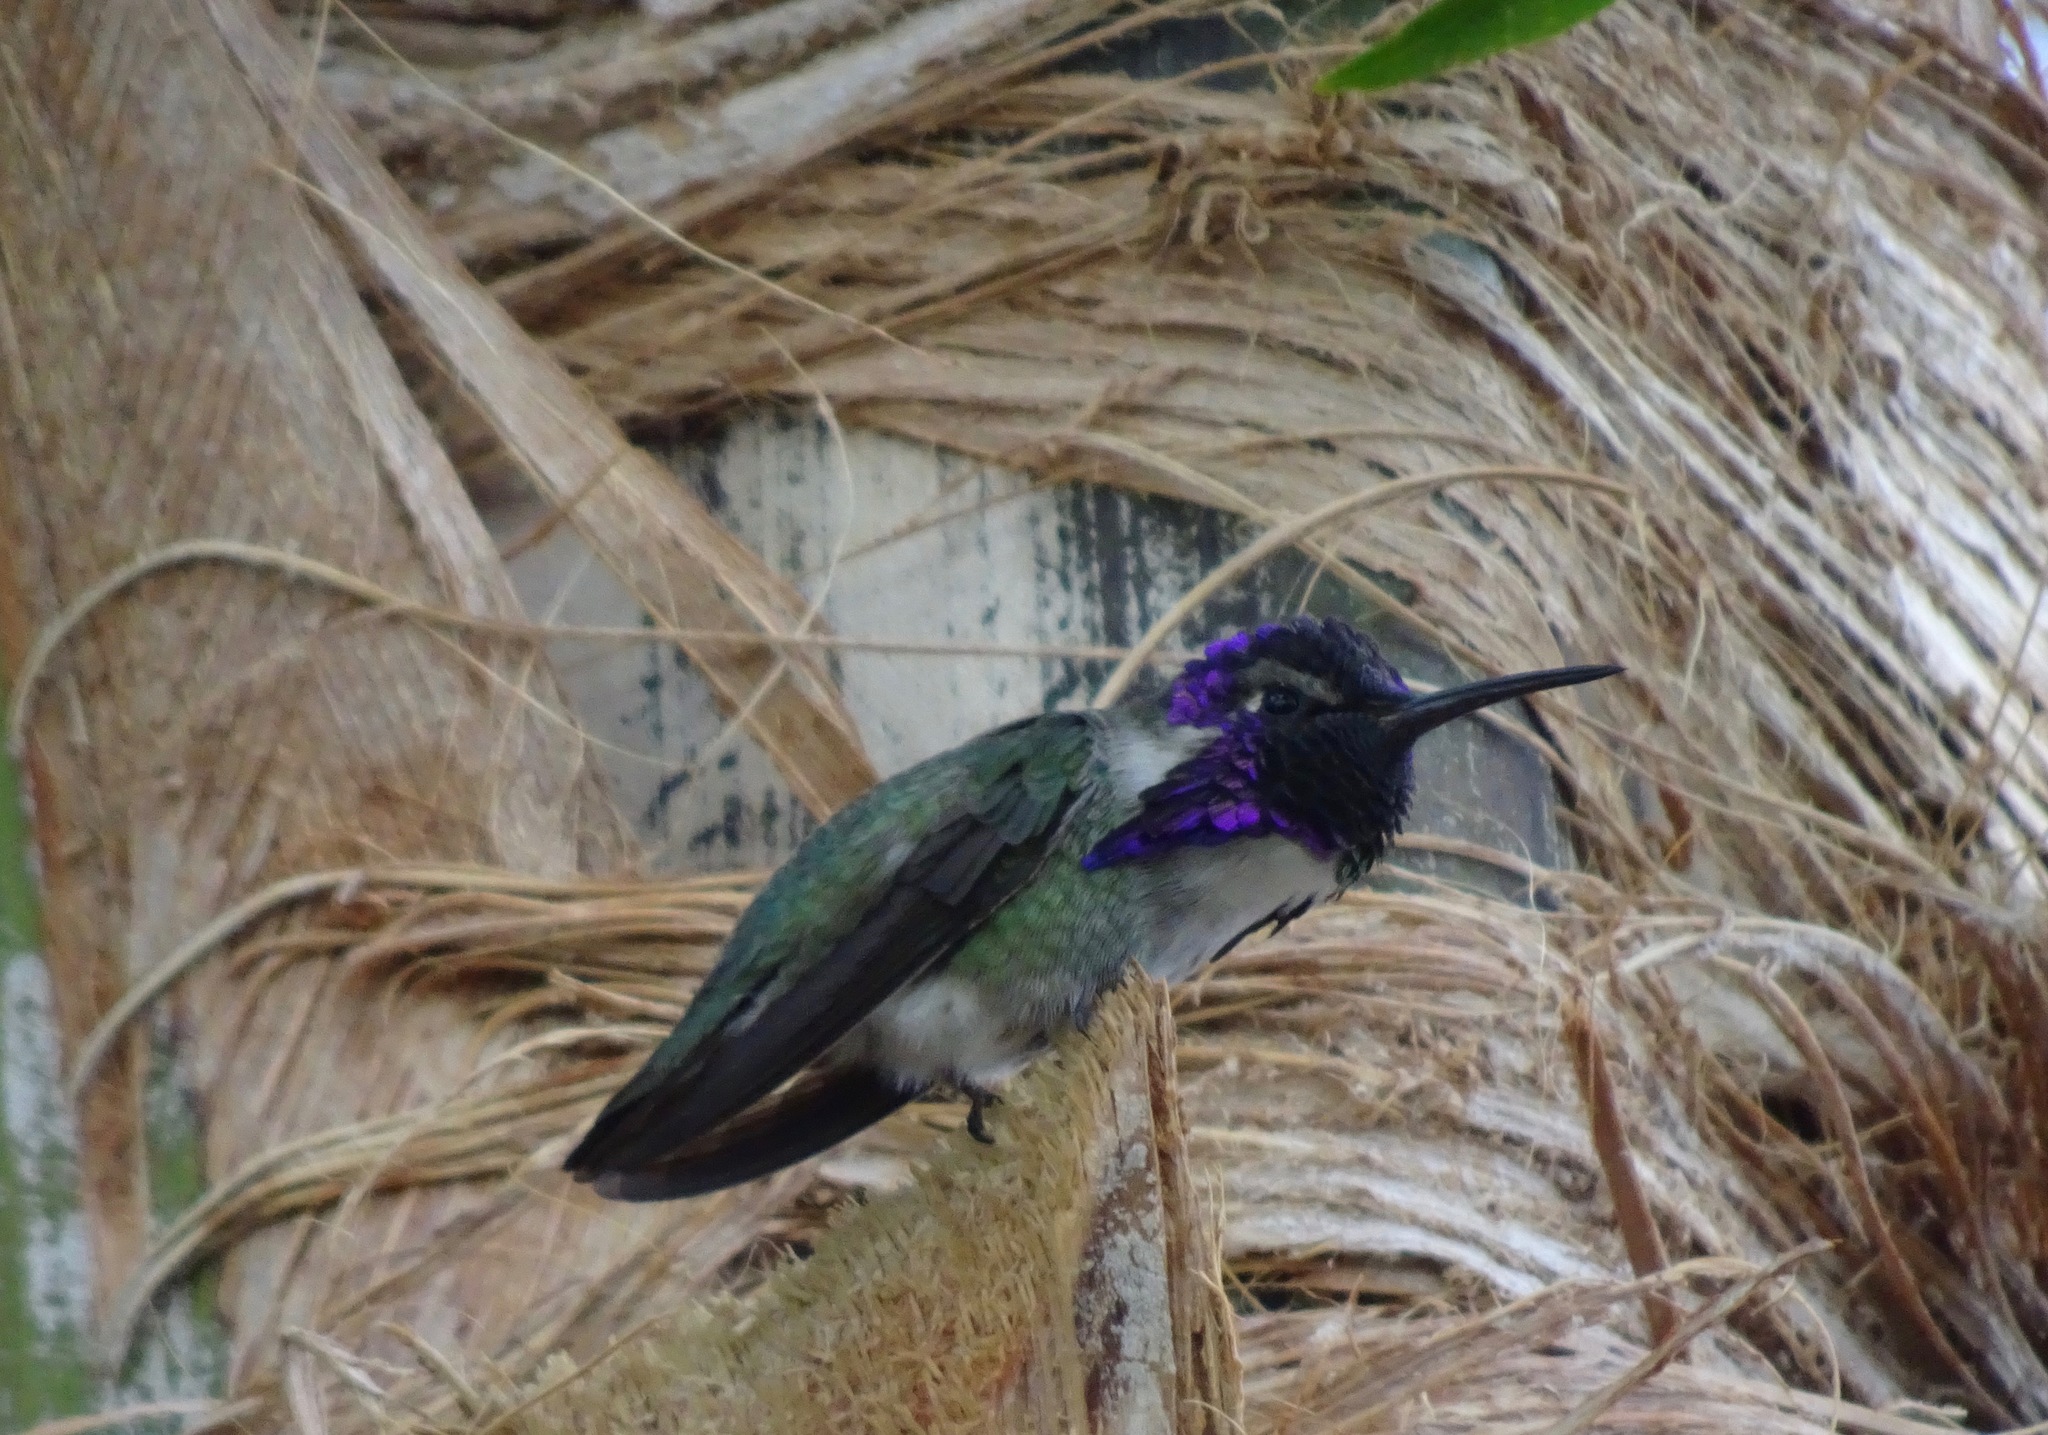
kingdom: Animalia
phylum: Chordata
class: Aves
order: Apodiformes
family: Trochilidae
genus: Calypte
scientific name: Calypte costae
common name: Costa's hummingbird
